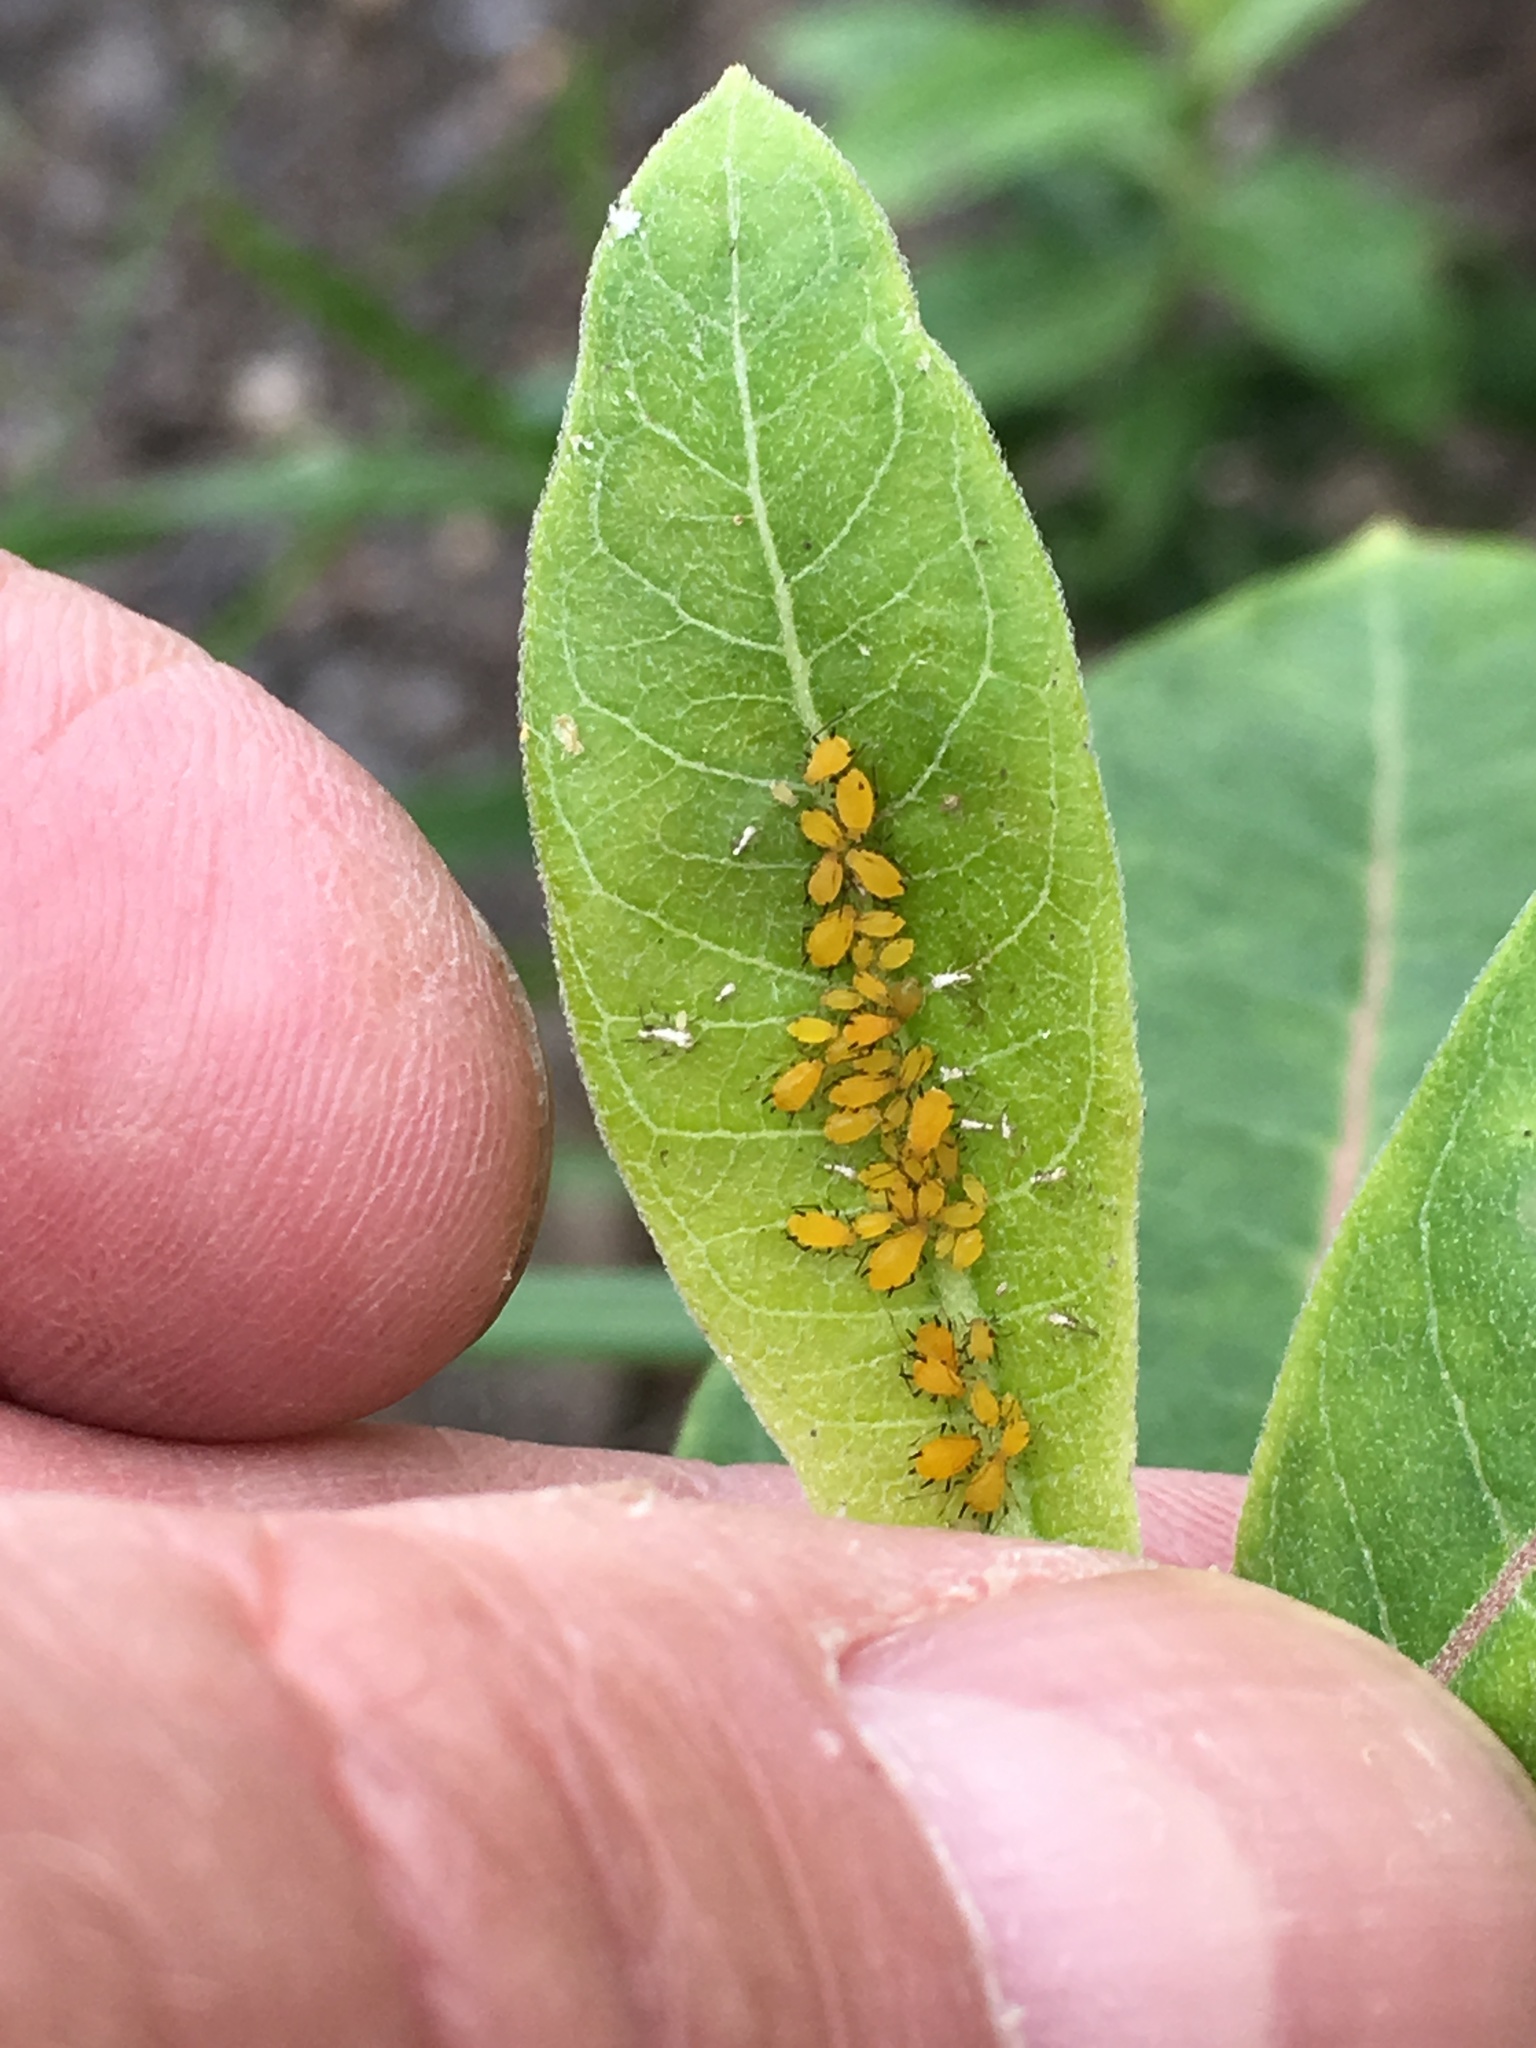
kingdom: Animalia
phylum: Arthropoda
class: Insecta
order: Hemiptera
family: Aphididae
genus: Aphis
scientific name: Aphis nerii
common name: Oleander aphid
